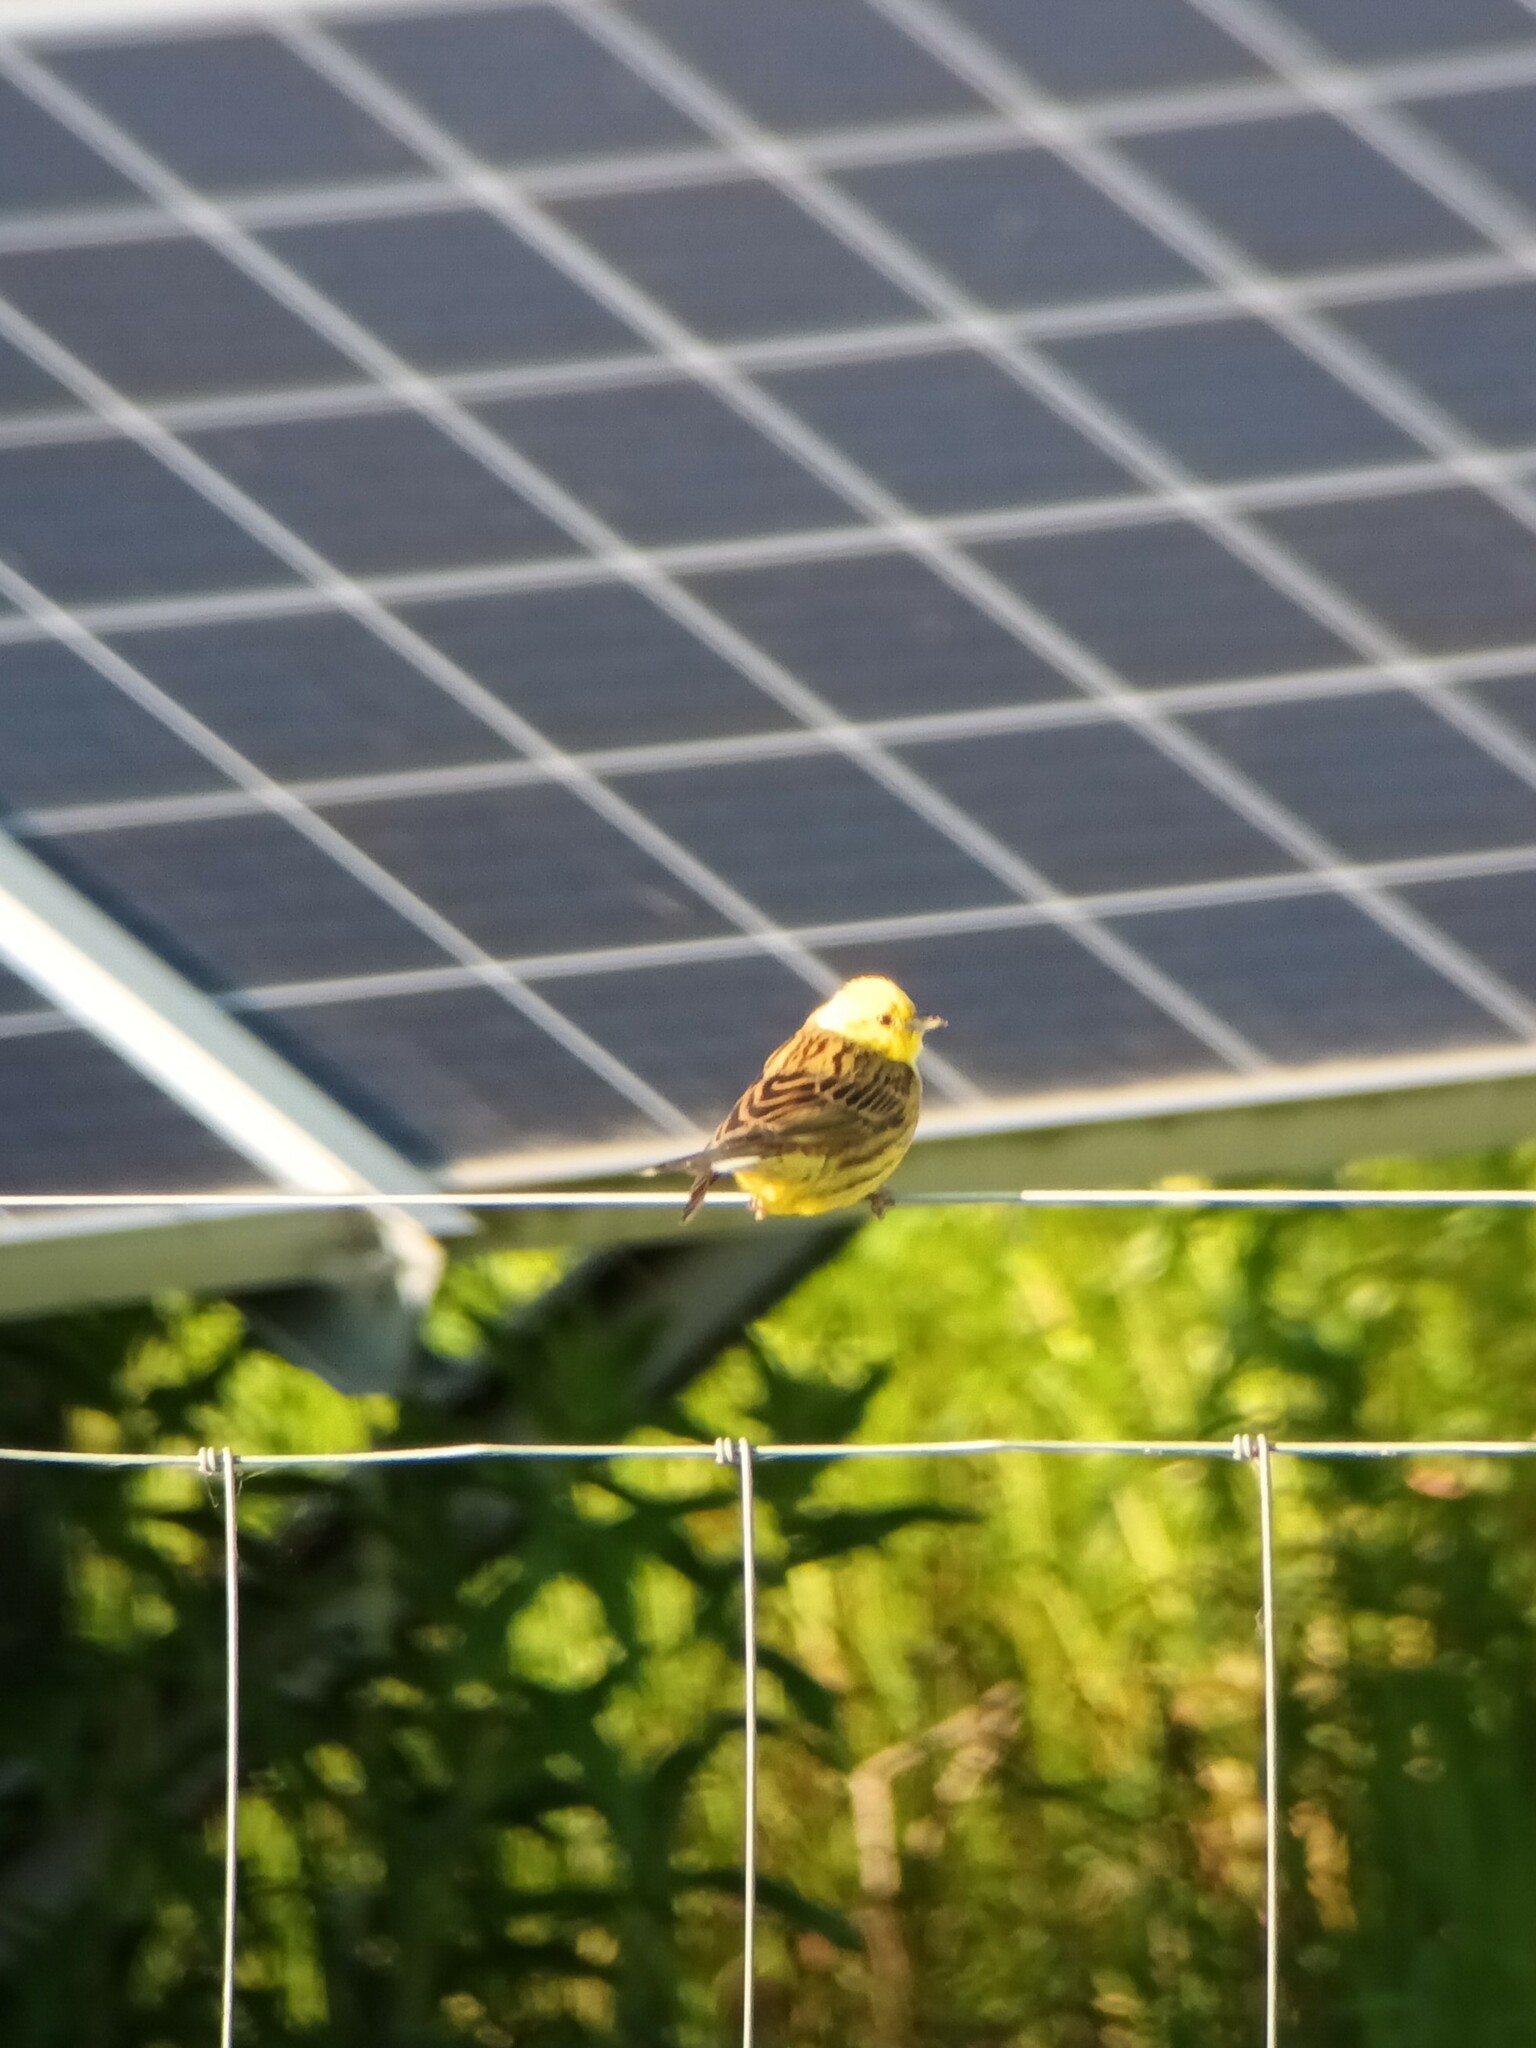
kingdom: Animalia
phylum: Chordata
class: Aves
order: Passeriformes
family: Emberizidae
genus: Emberiza
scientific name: Emberiza citrinella
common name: Yellowhammer
